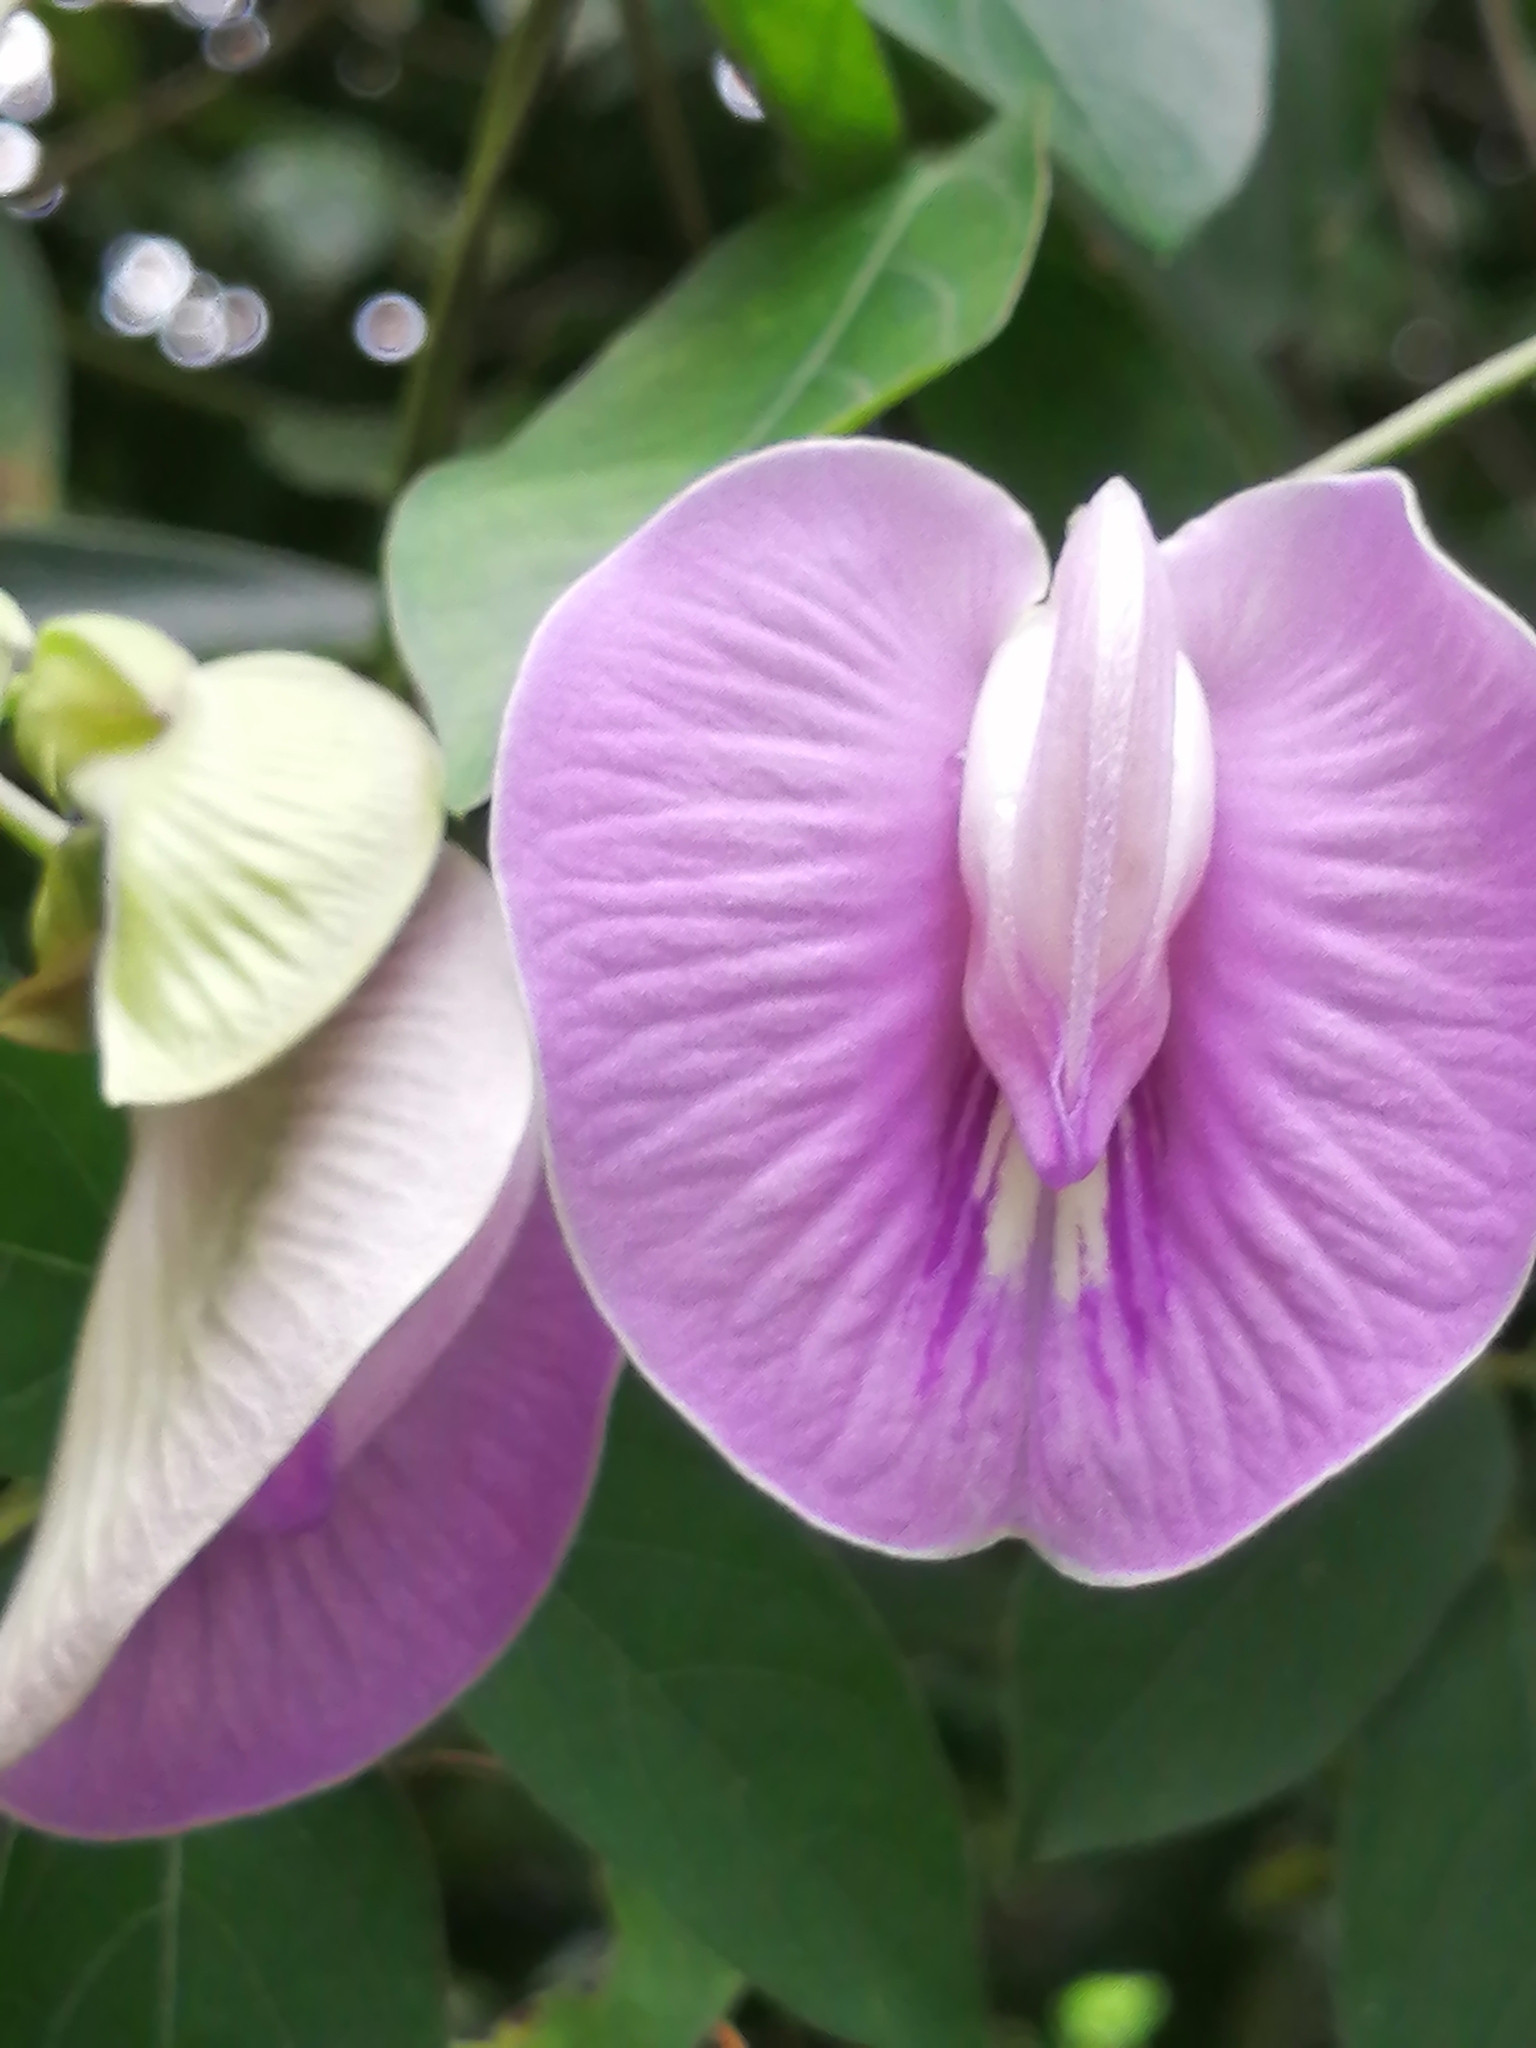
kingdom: Plantae
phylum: Tracheophyta
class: Magnoliopsida
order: Fabales
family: Fabaceae
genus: Centrosema
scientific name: Centrosema virginianum
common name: Butterfly-pea
